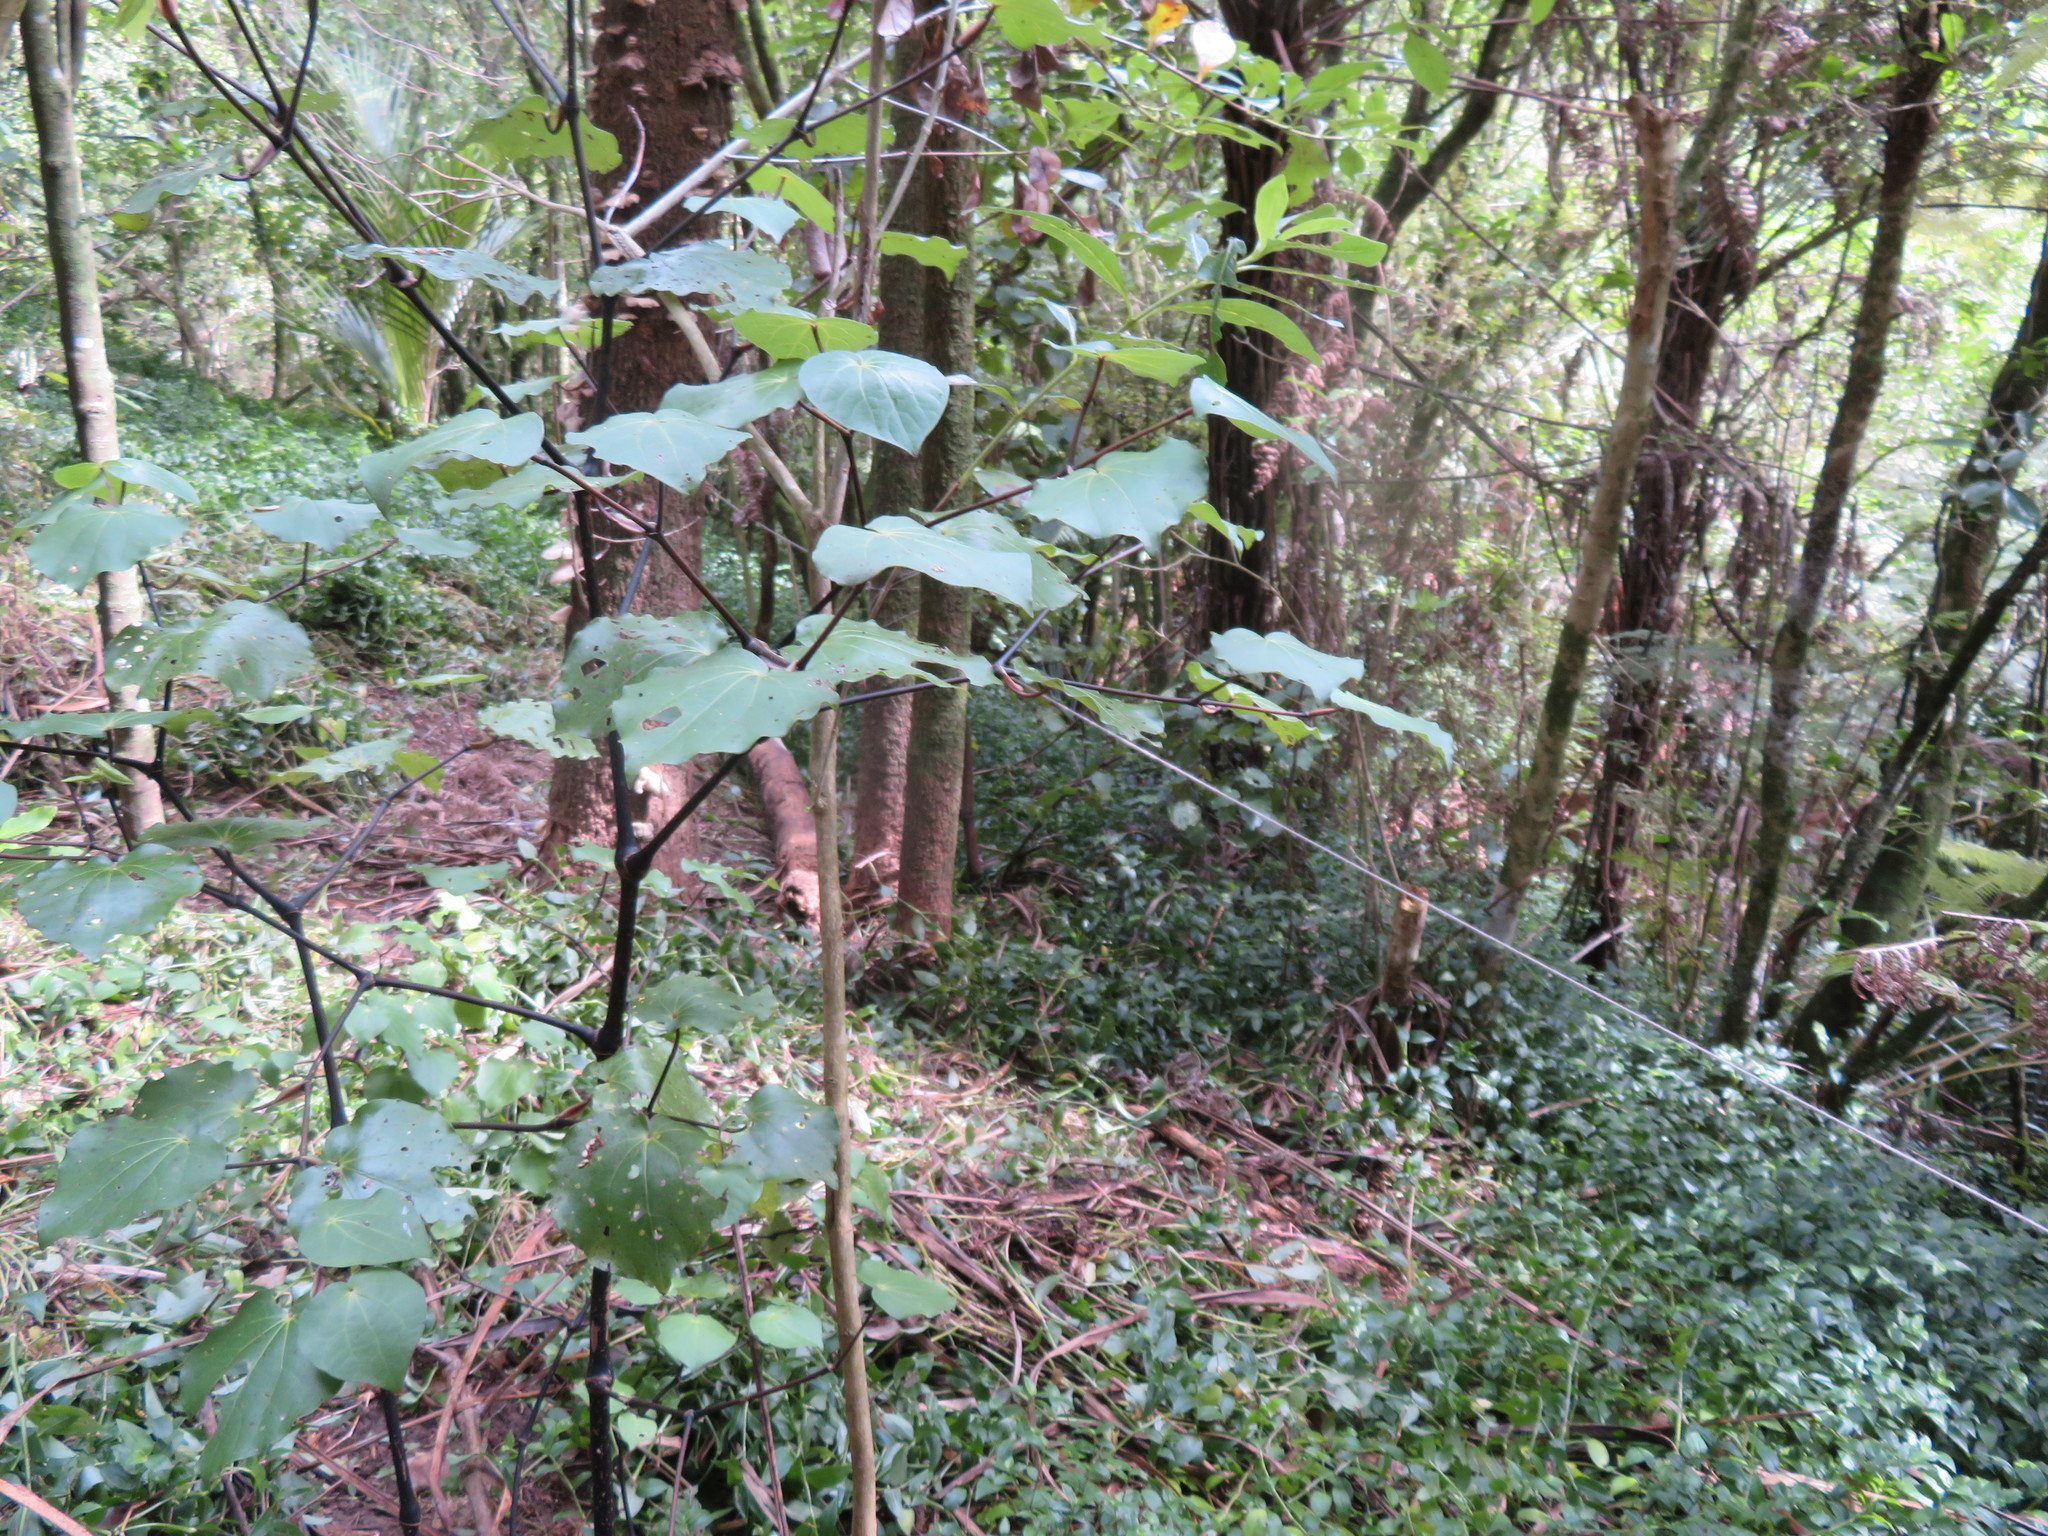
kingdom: Plantae
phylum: Tracheophyta
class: Liliopsida
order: Commelinales
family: Commelinaceae
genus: Tradescantia
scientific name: Tradescantia fluminensis
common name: Wandering-jew
